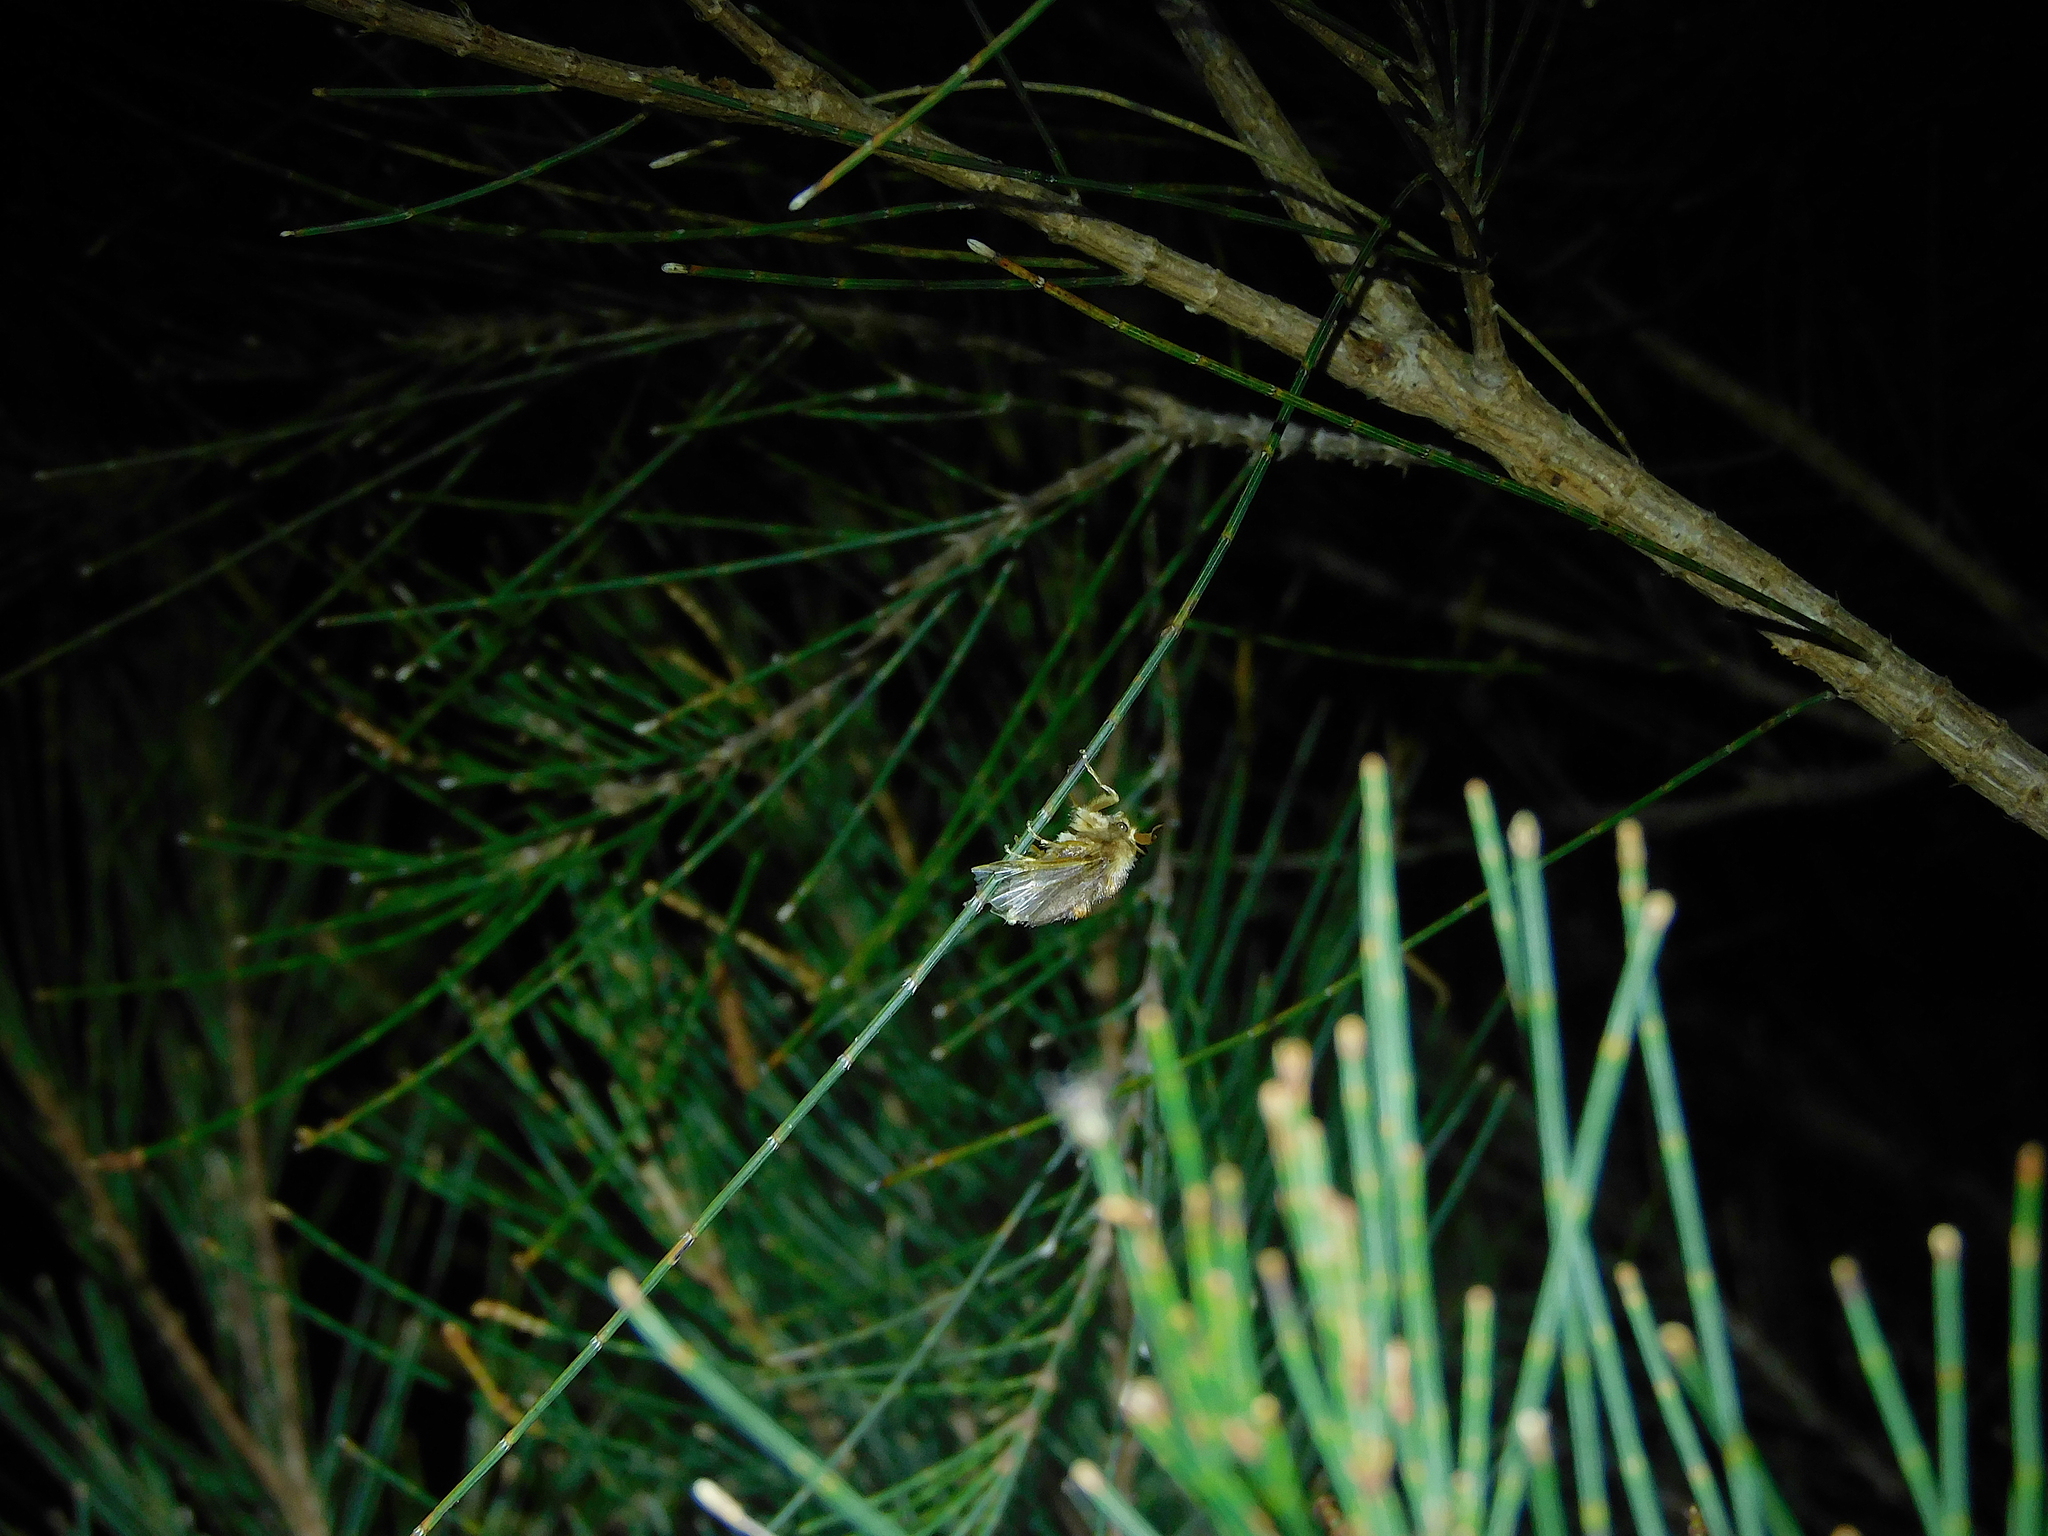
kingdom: Animalia
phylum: Arthropoda
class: Insecta
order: Lepidoptera
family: Limacodidae
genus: Doratifera
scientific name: Doratifera oxleyi
